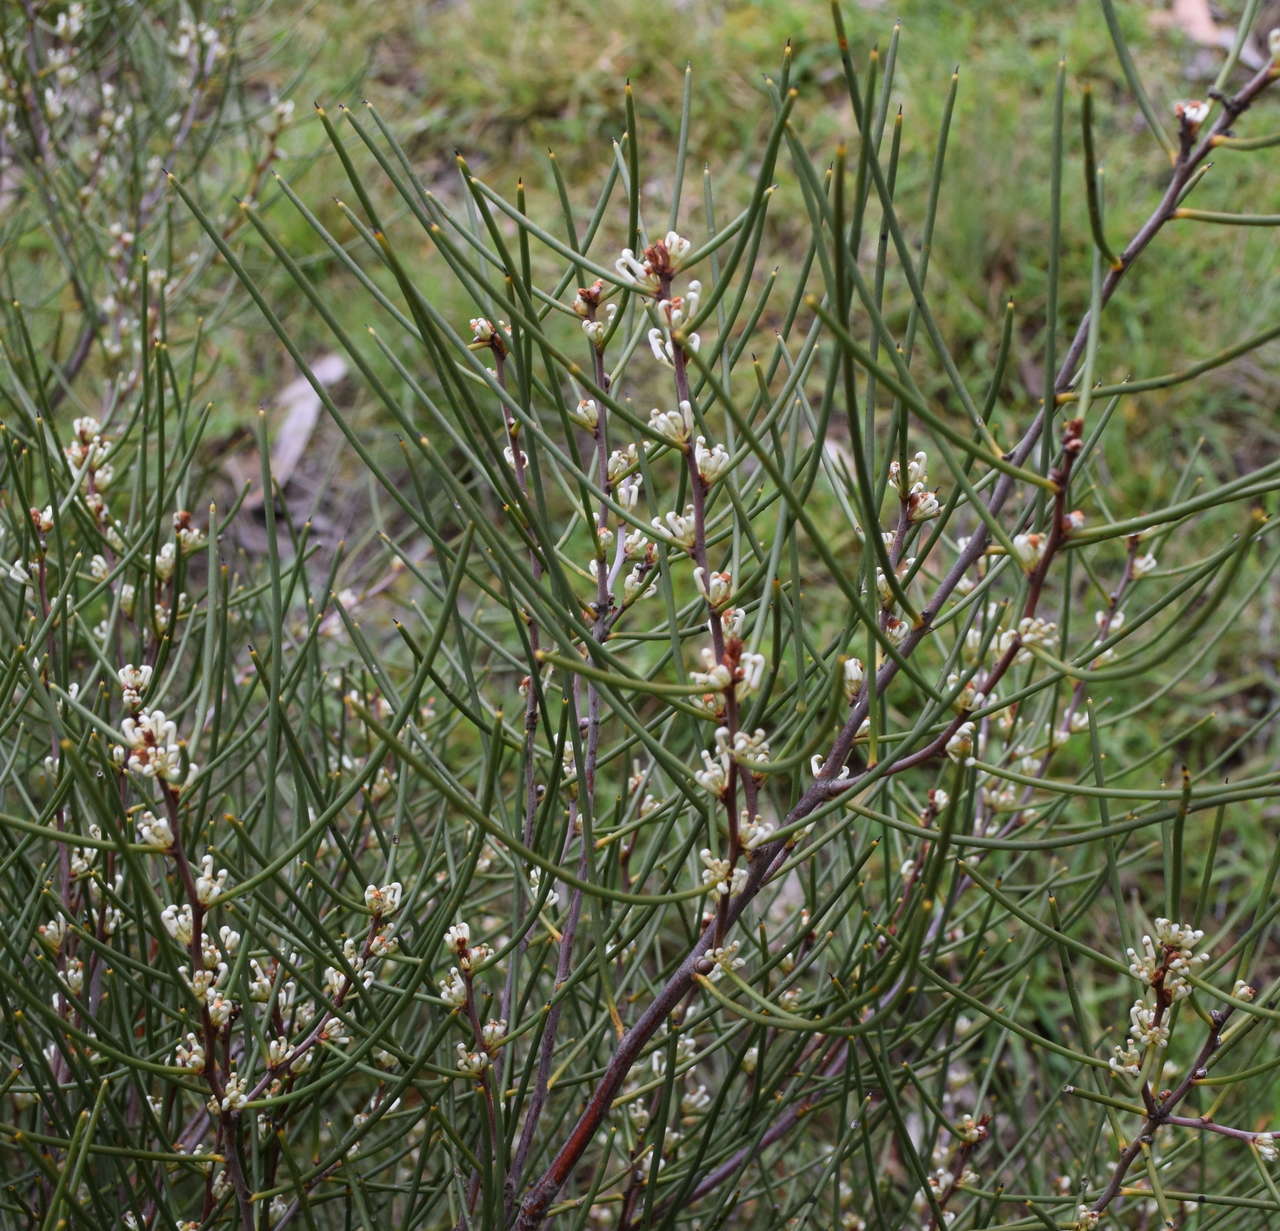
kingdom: Plantae
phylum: Tracheophyta
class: Magnoliopsida
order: Proteales
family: Proteaceae
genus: Hakea
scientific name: Hakea rostrata
